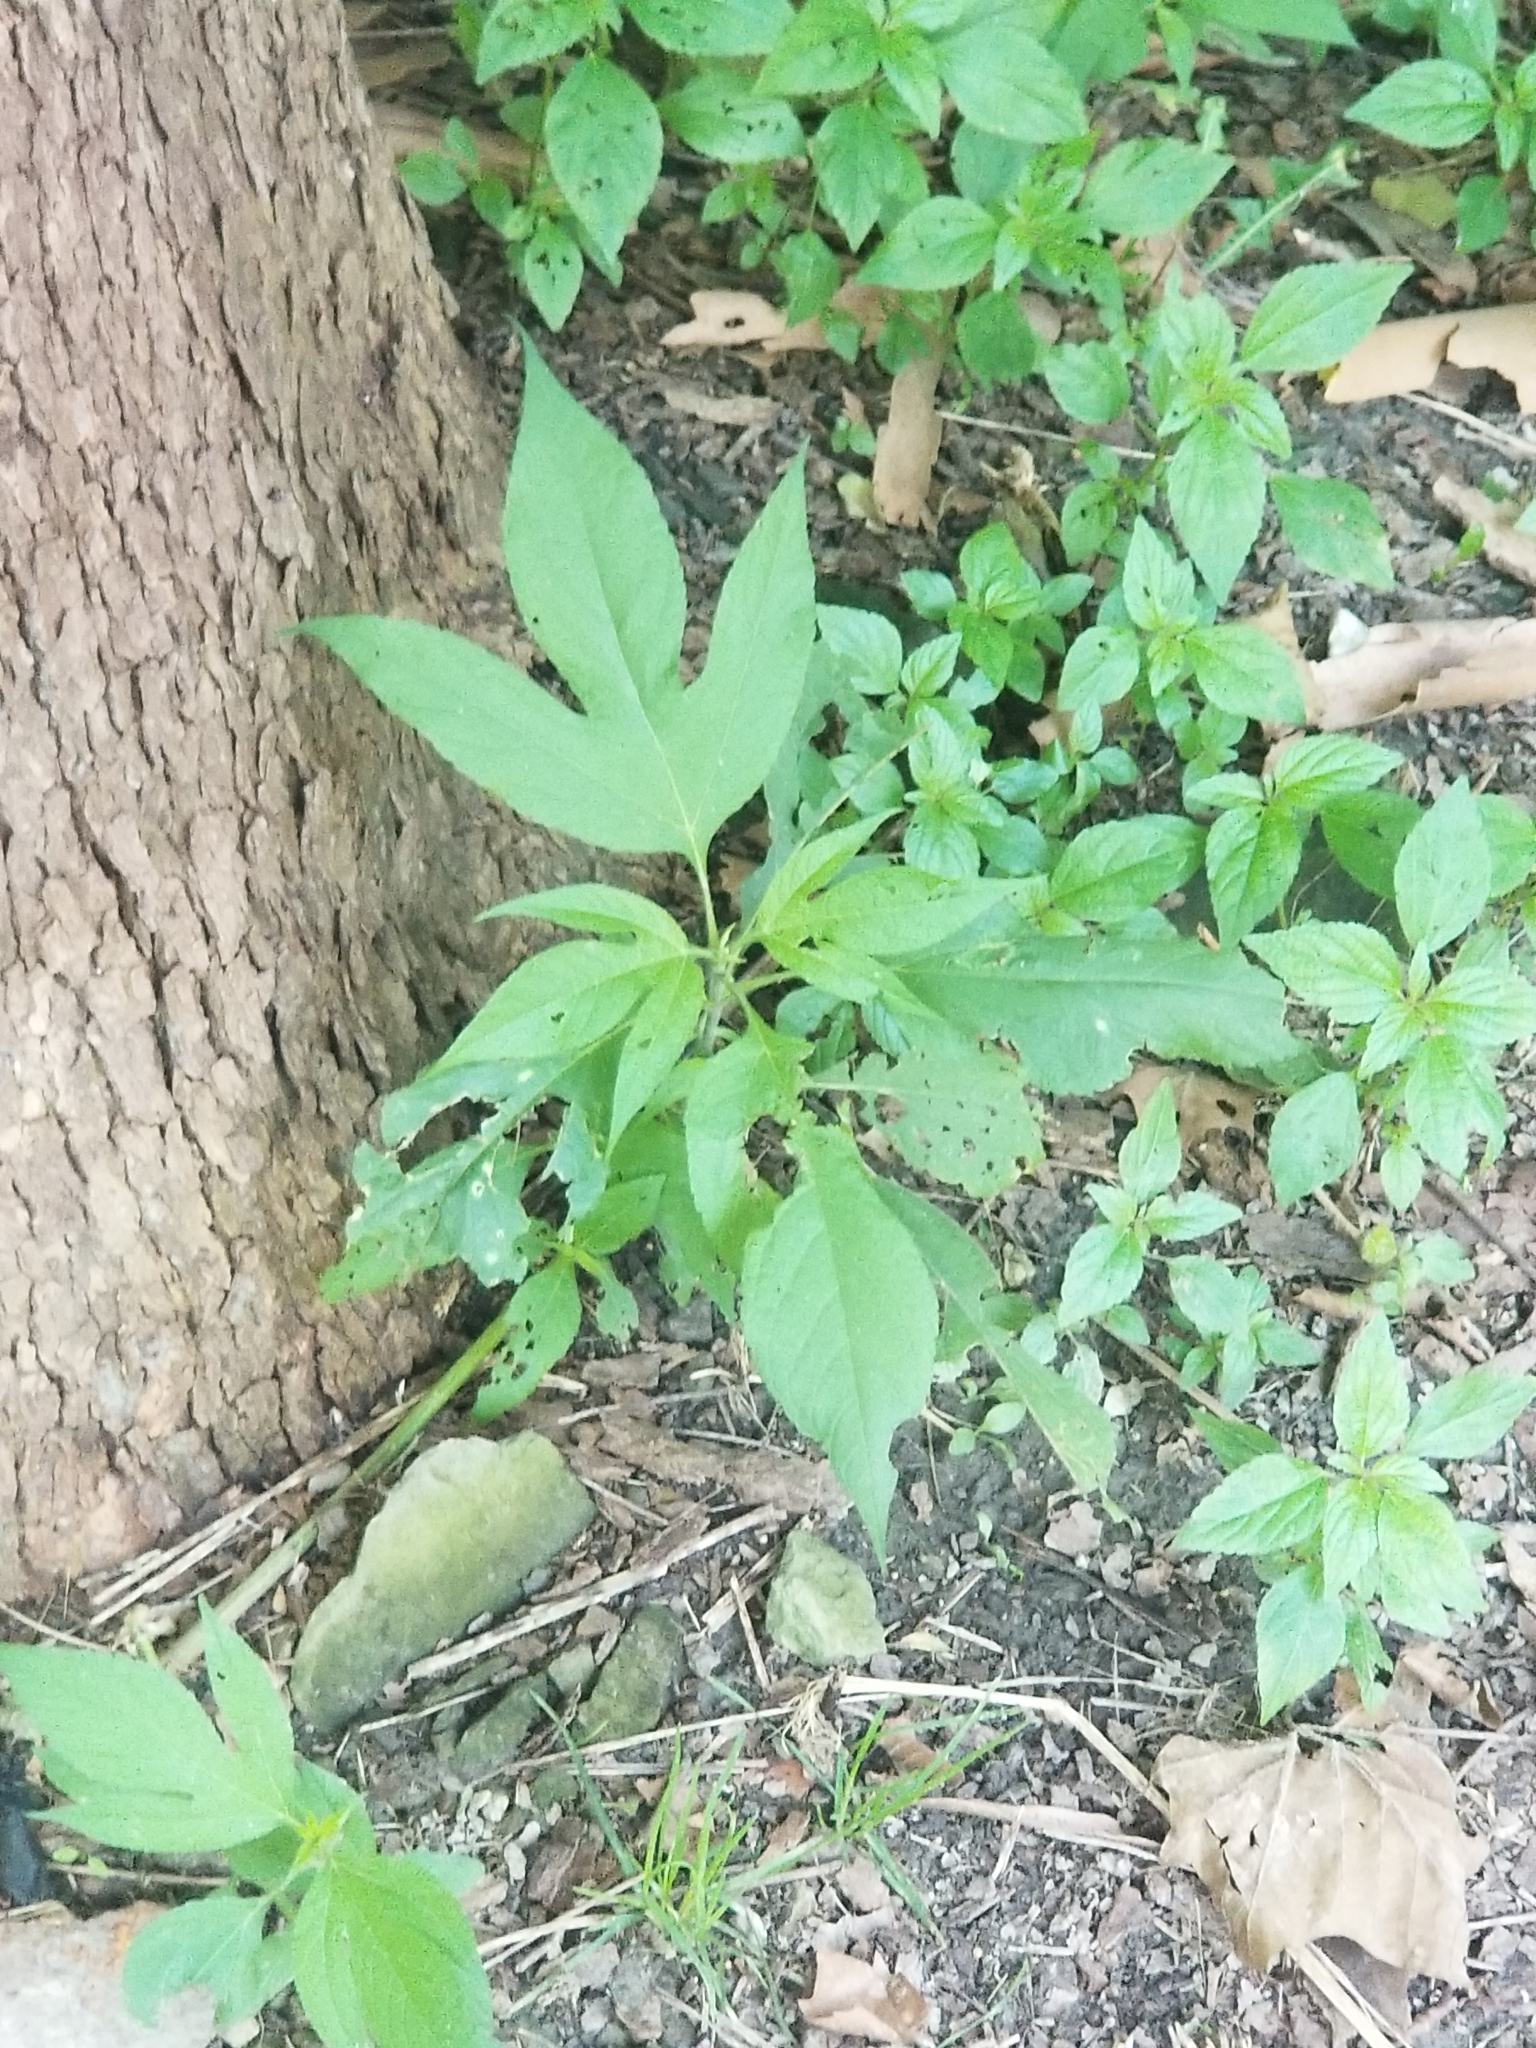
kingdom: Plantae
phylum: Tracheophyta
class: Magnoliopsida
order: Asterales
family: Asteraceae
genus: Ambrosia
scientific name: Ambrosia trifida
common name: Giant ragweed
